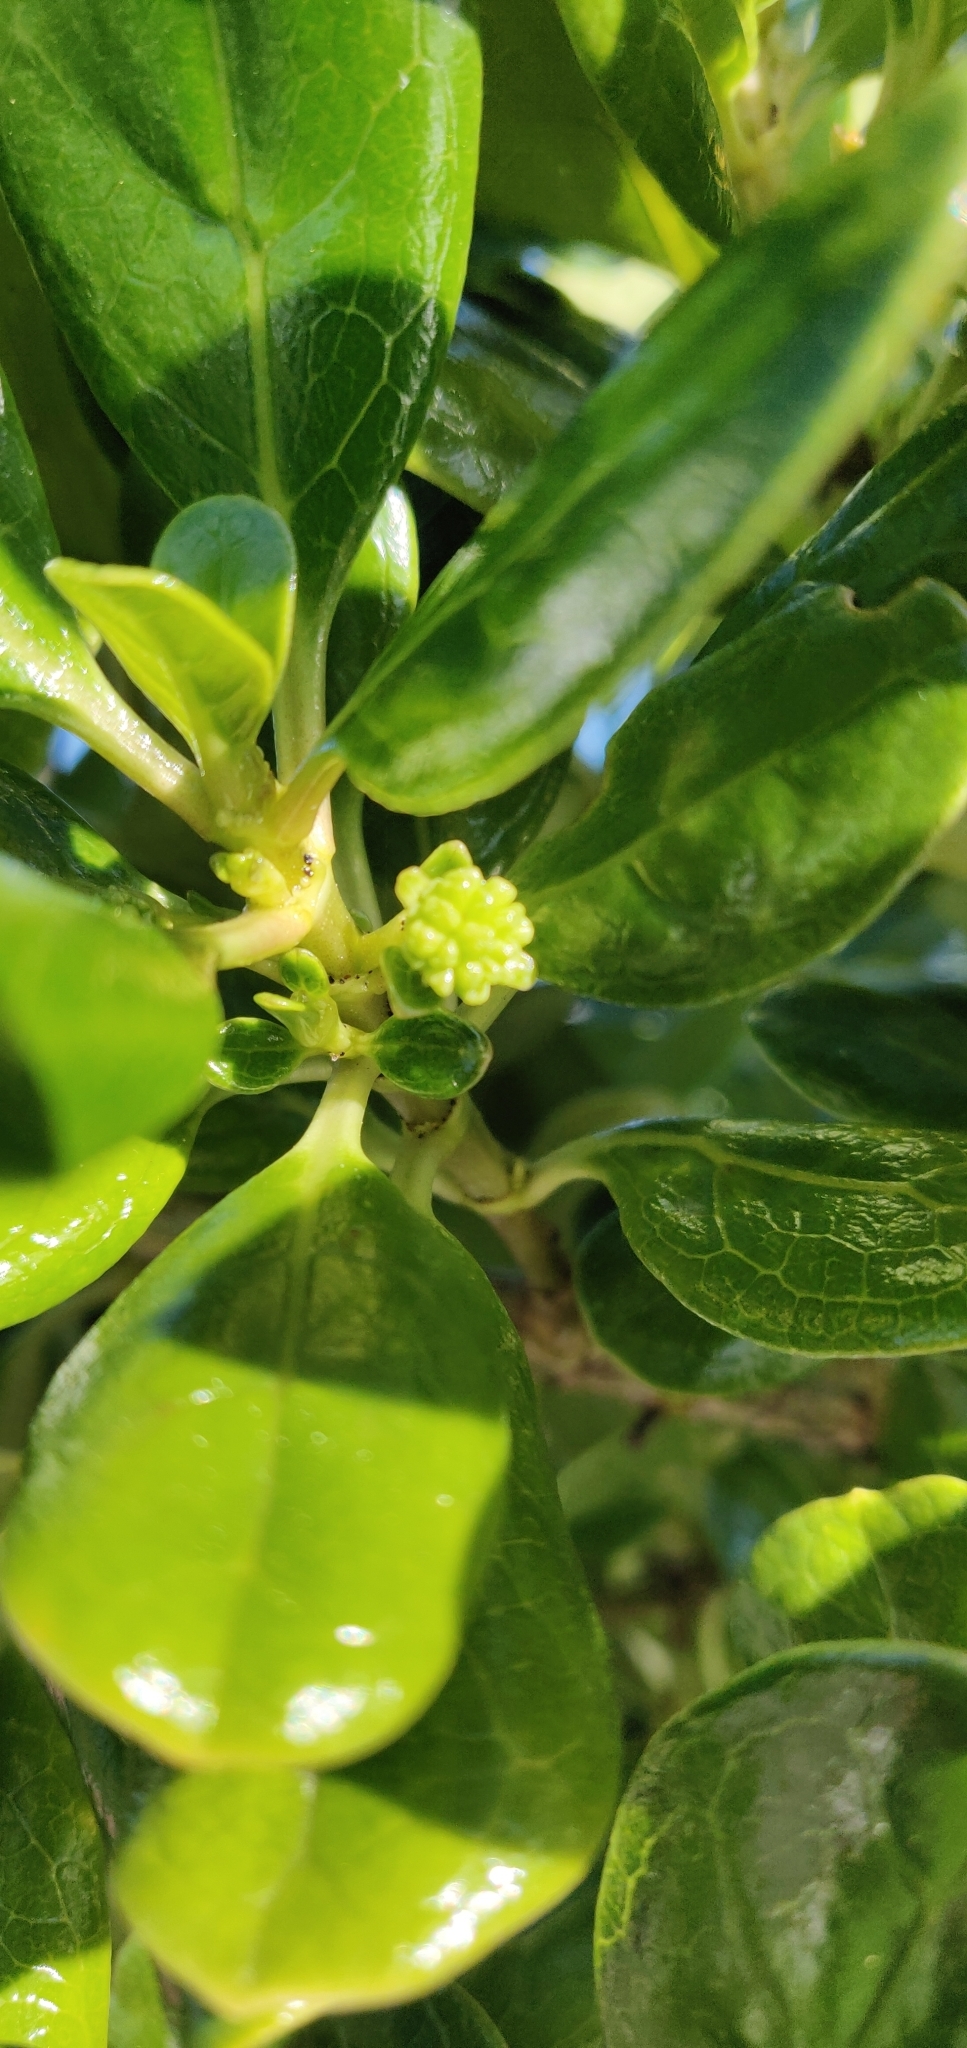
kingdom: Plantae
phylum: Tracheophyta
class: Magnoliopsida
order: Gentianales
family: Rubiaceae
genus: Coprosma
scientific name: Coprosma repens
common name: Tree bedstraw
